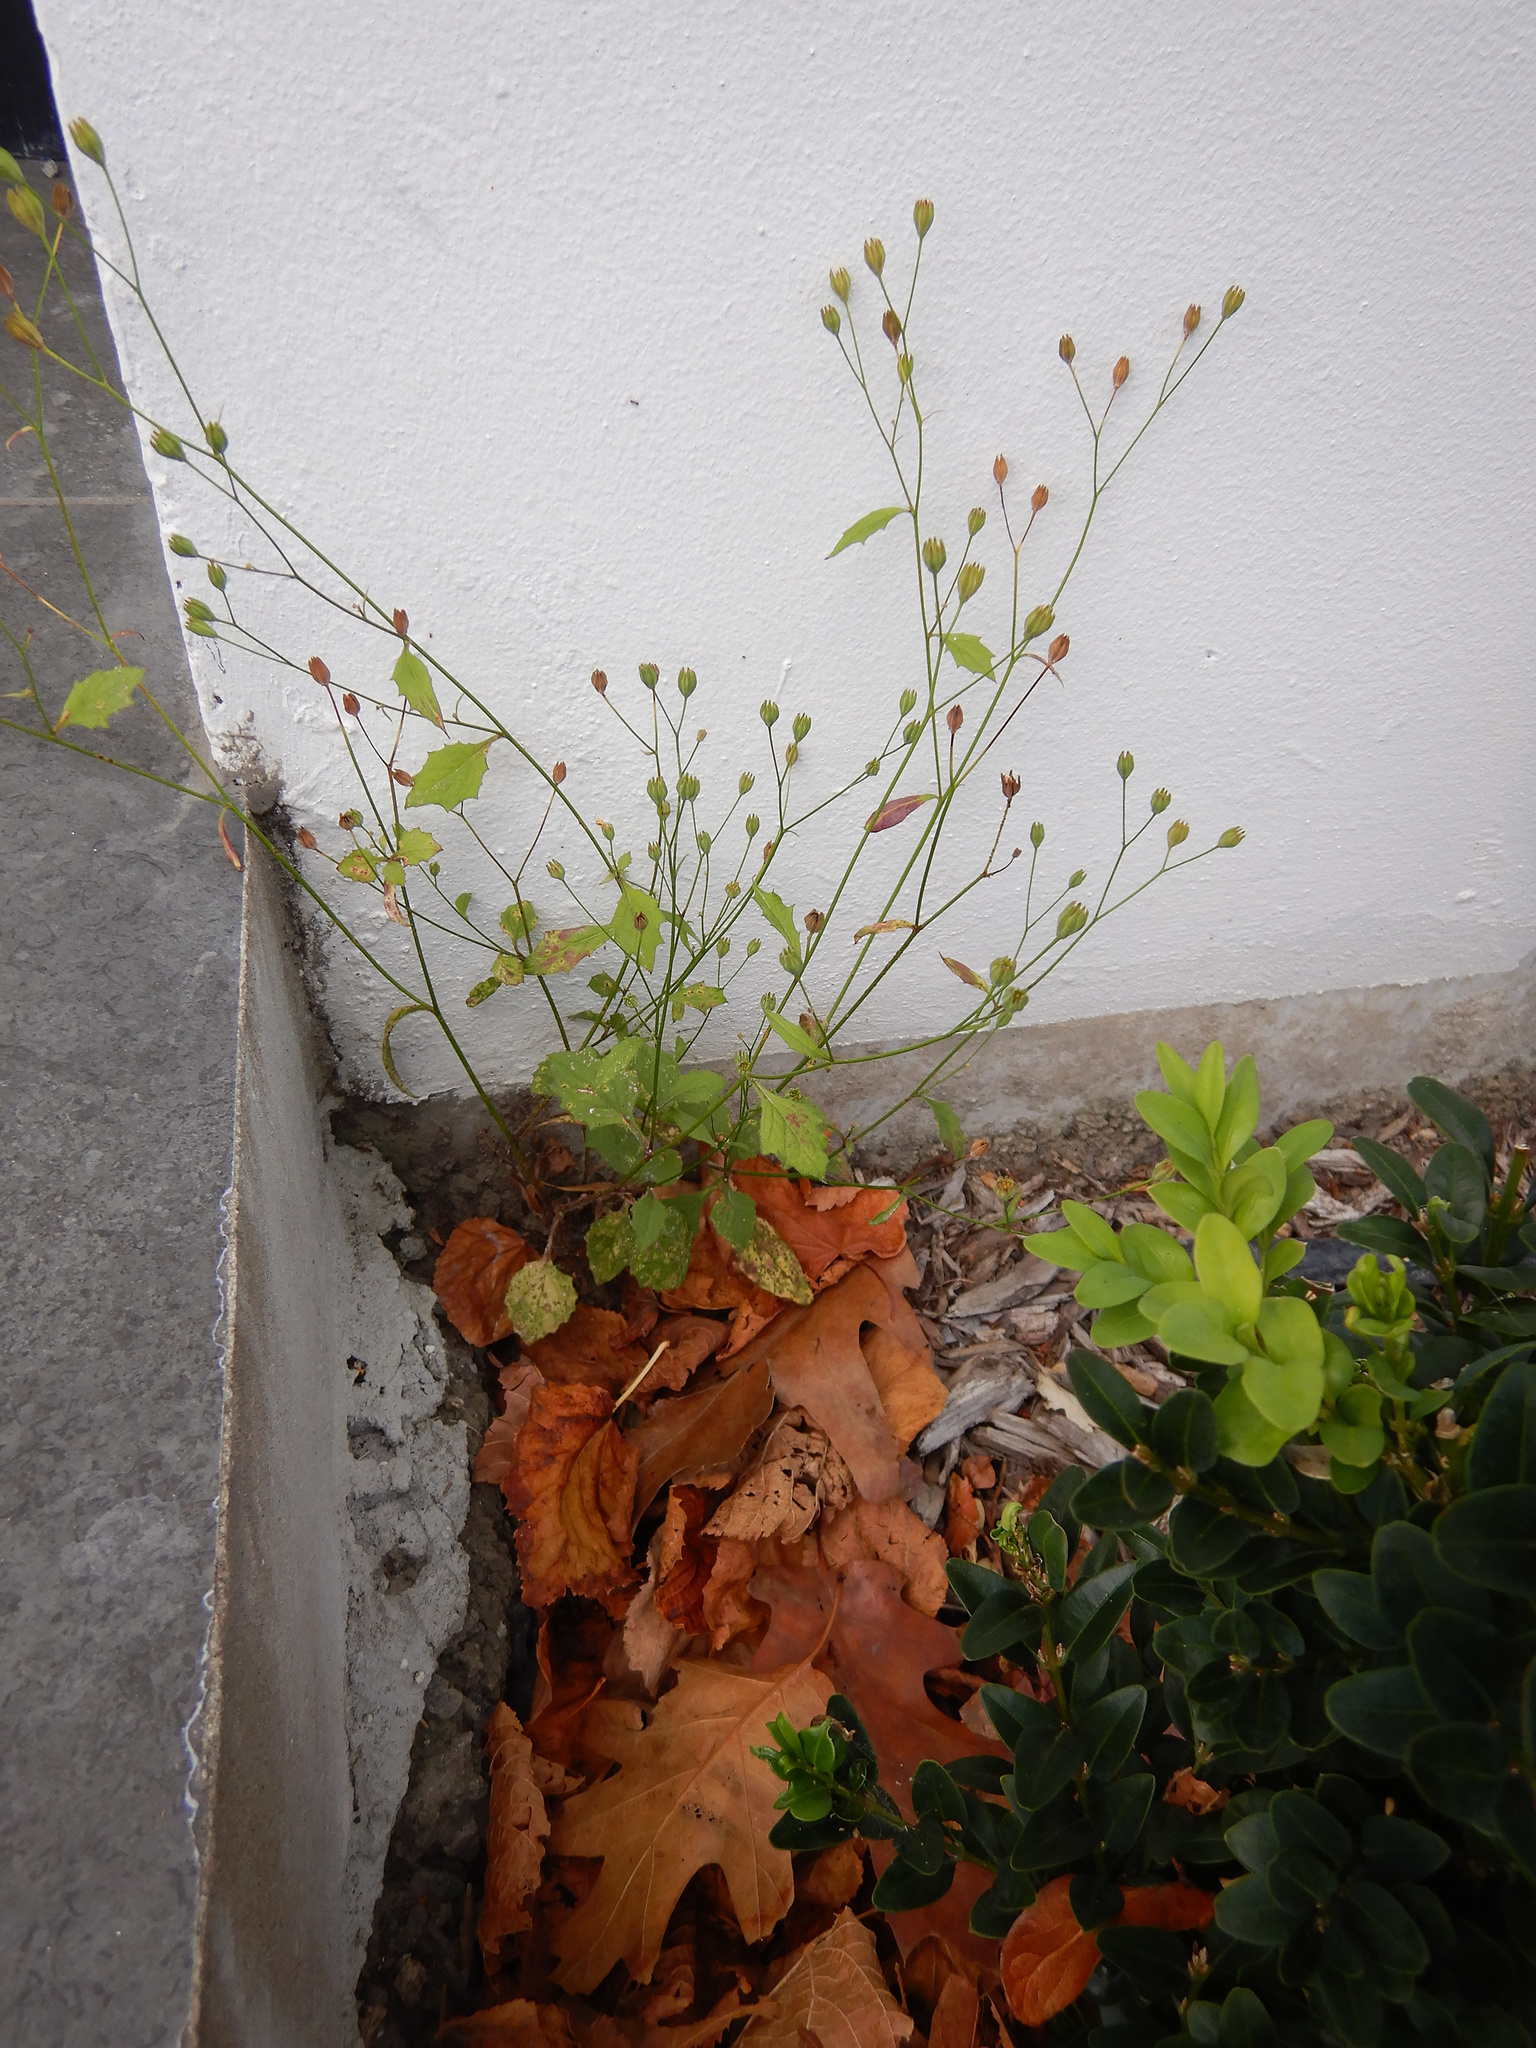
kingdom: Plantae
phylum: Tracheophyta
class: Magnoliopsida
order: Asterales
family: Asteraceae
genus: Lapsana
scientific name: Lapsana communis
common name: Nipplewort
